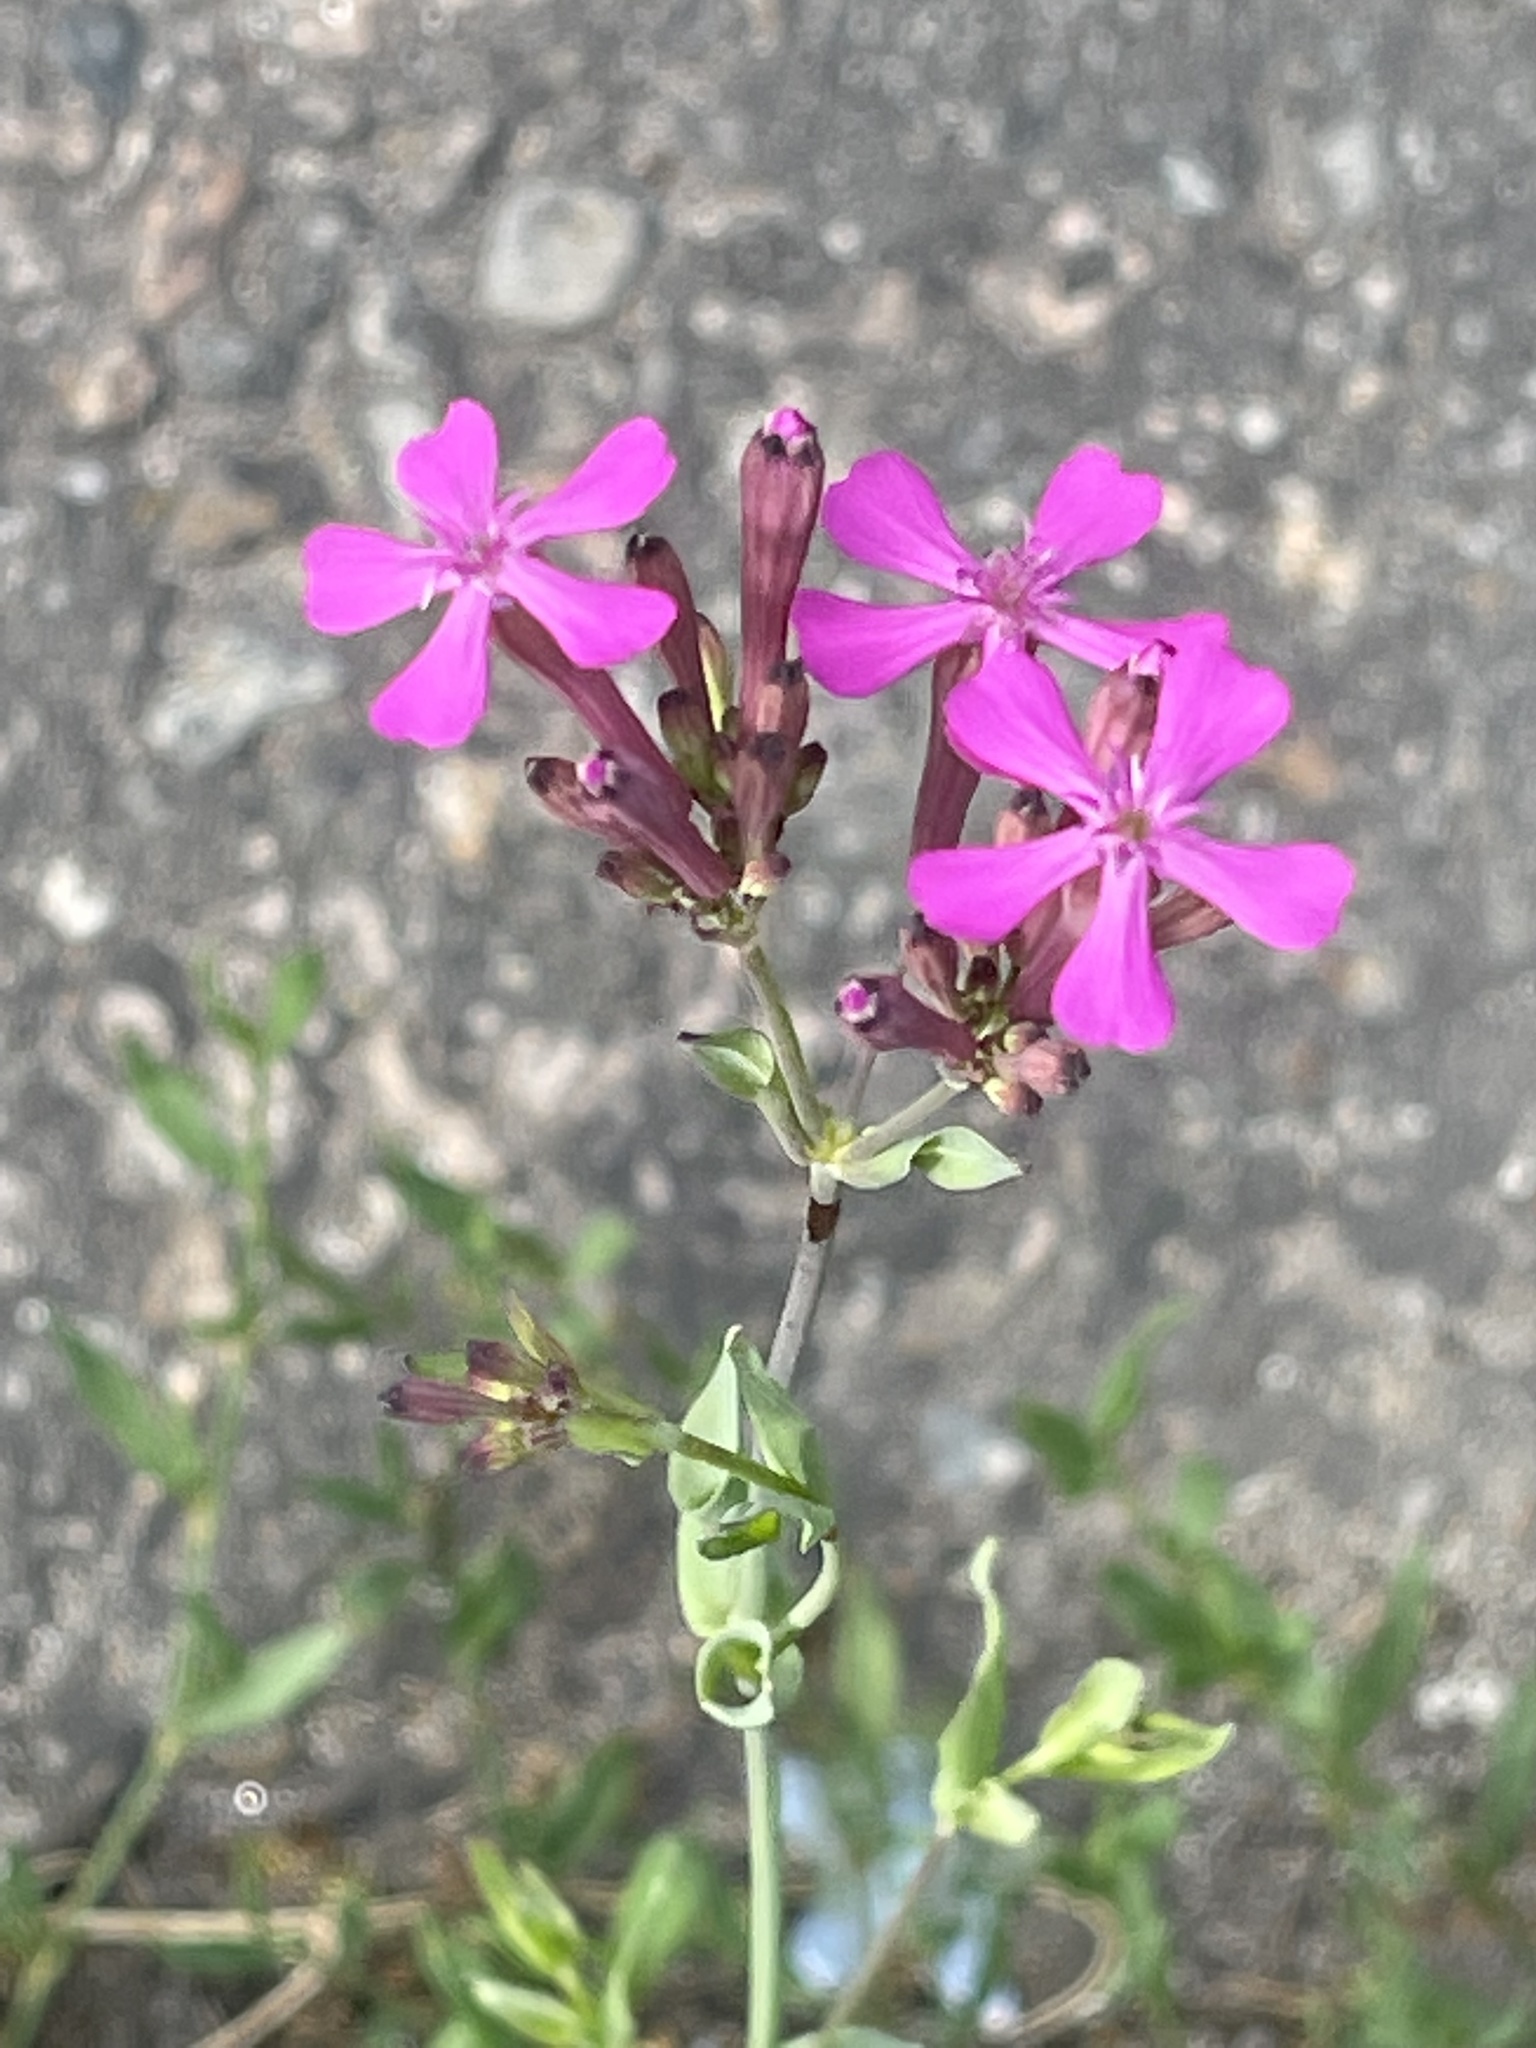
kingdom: Plantae
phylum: Tracheophyta
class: Magnoliopsida
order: Caryophyllales
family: Caryophyllaceae
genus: Atocion
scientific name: Atocion armeria
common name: Sweet william catchfly
